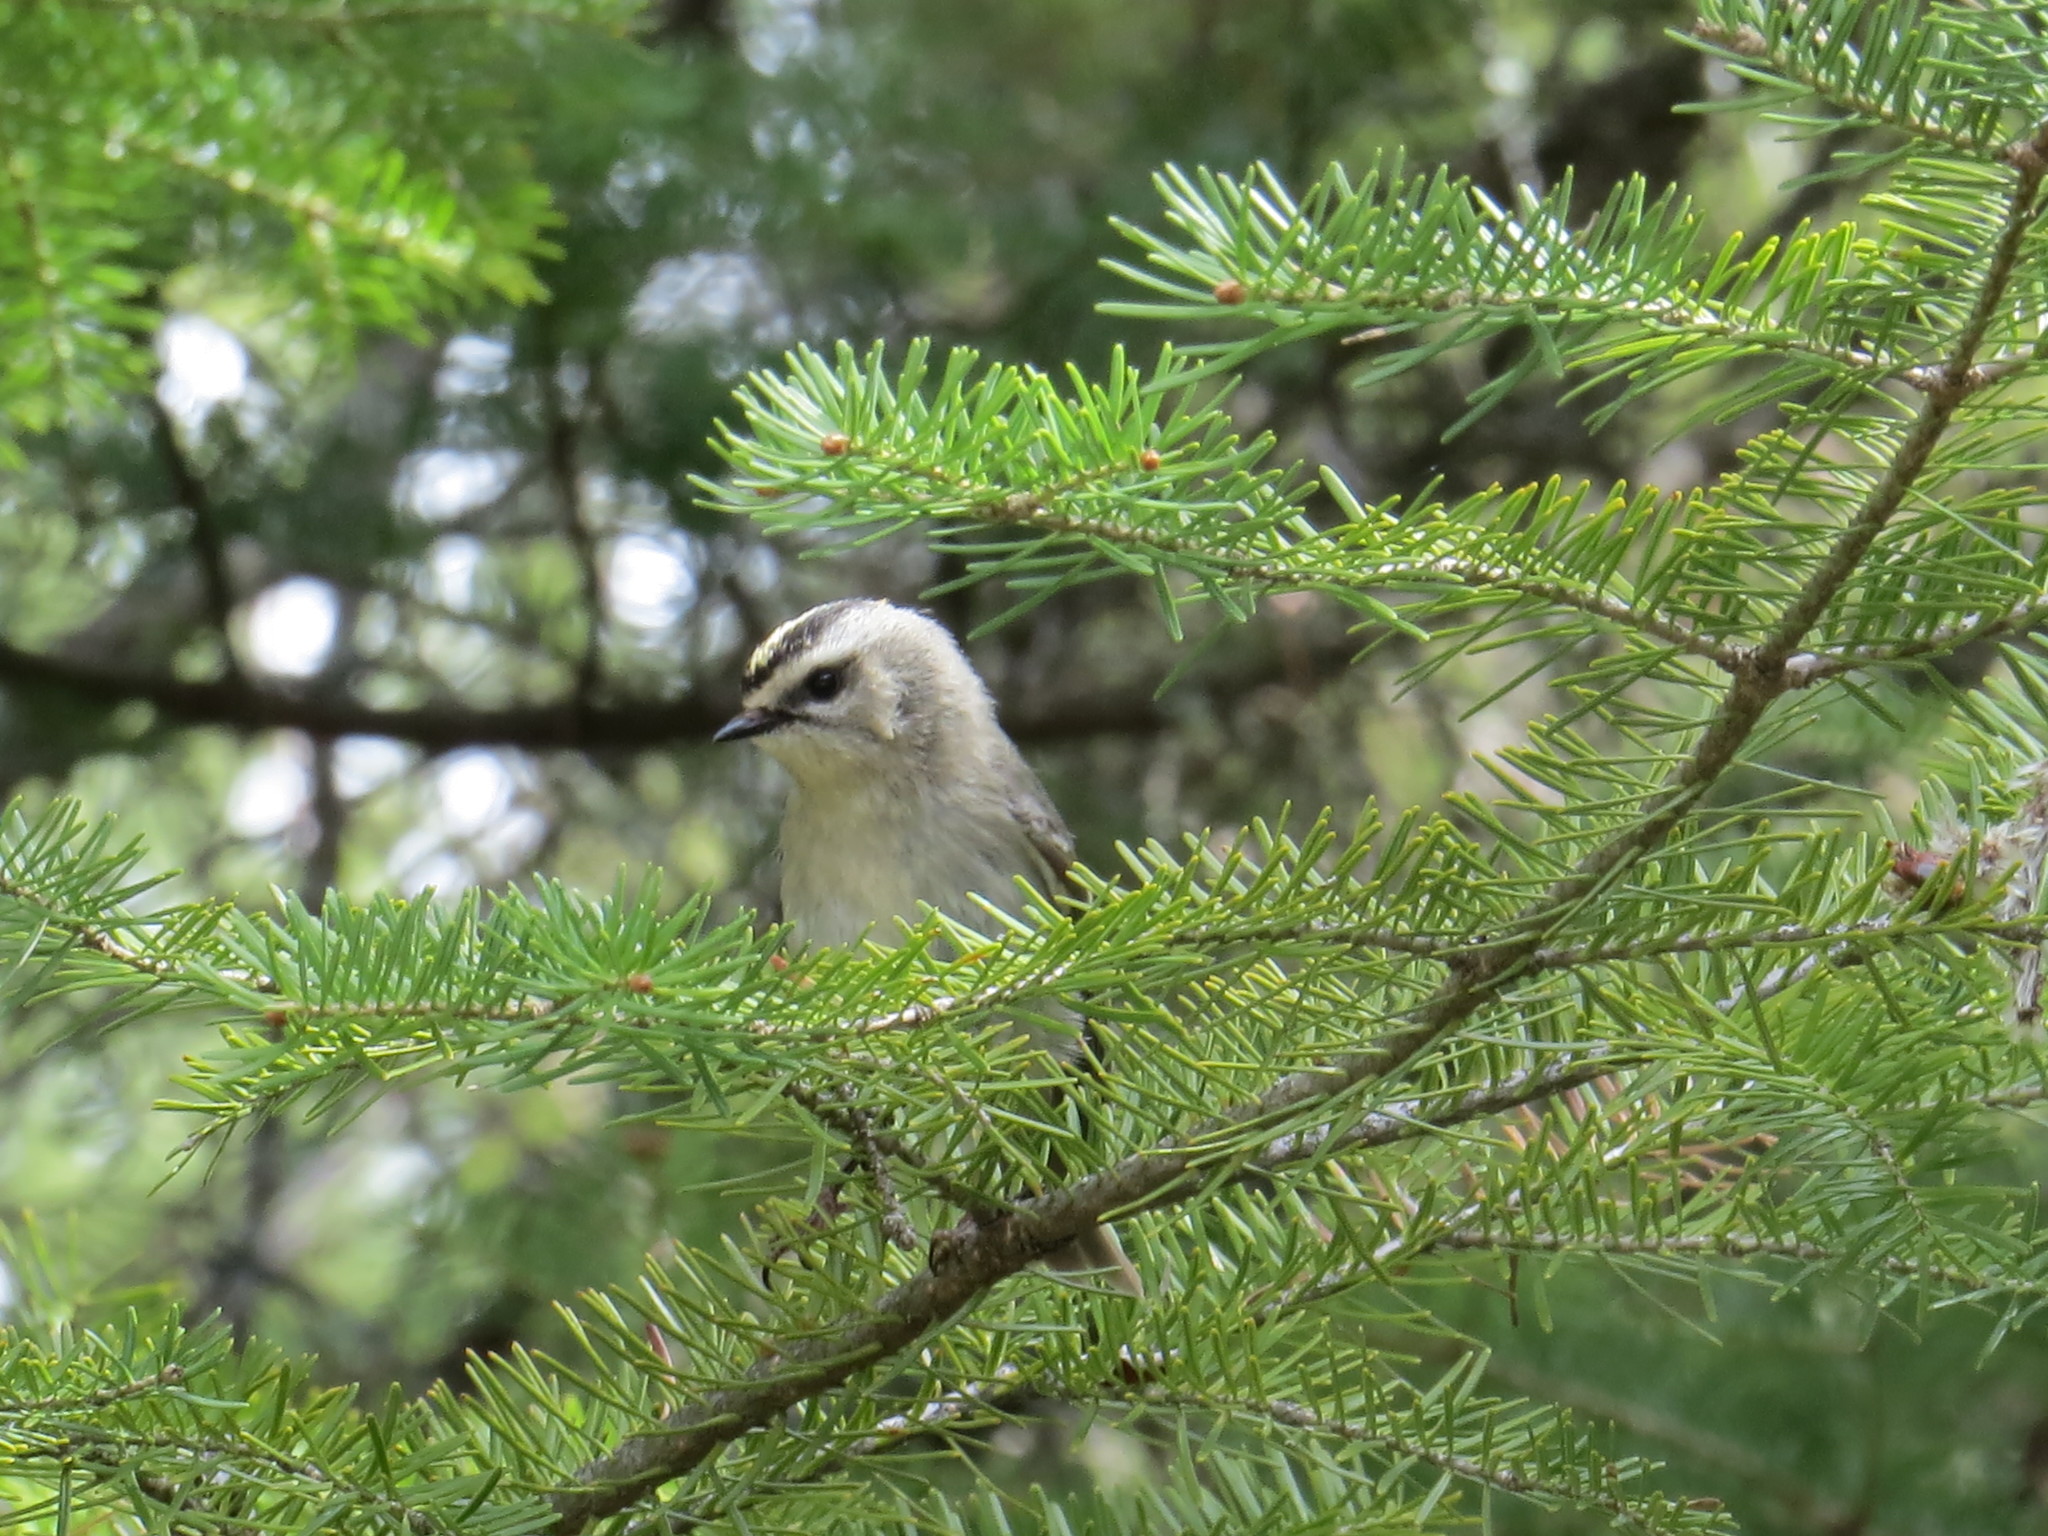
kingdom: Animalia
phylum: Chordata
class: Aves
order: Passeriformes
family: Regulidae
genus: Regulus
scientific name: Regulus satrapa
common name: Golden-crowned kinglet
